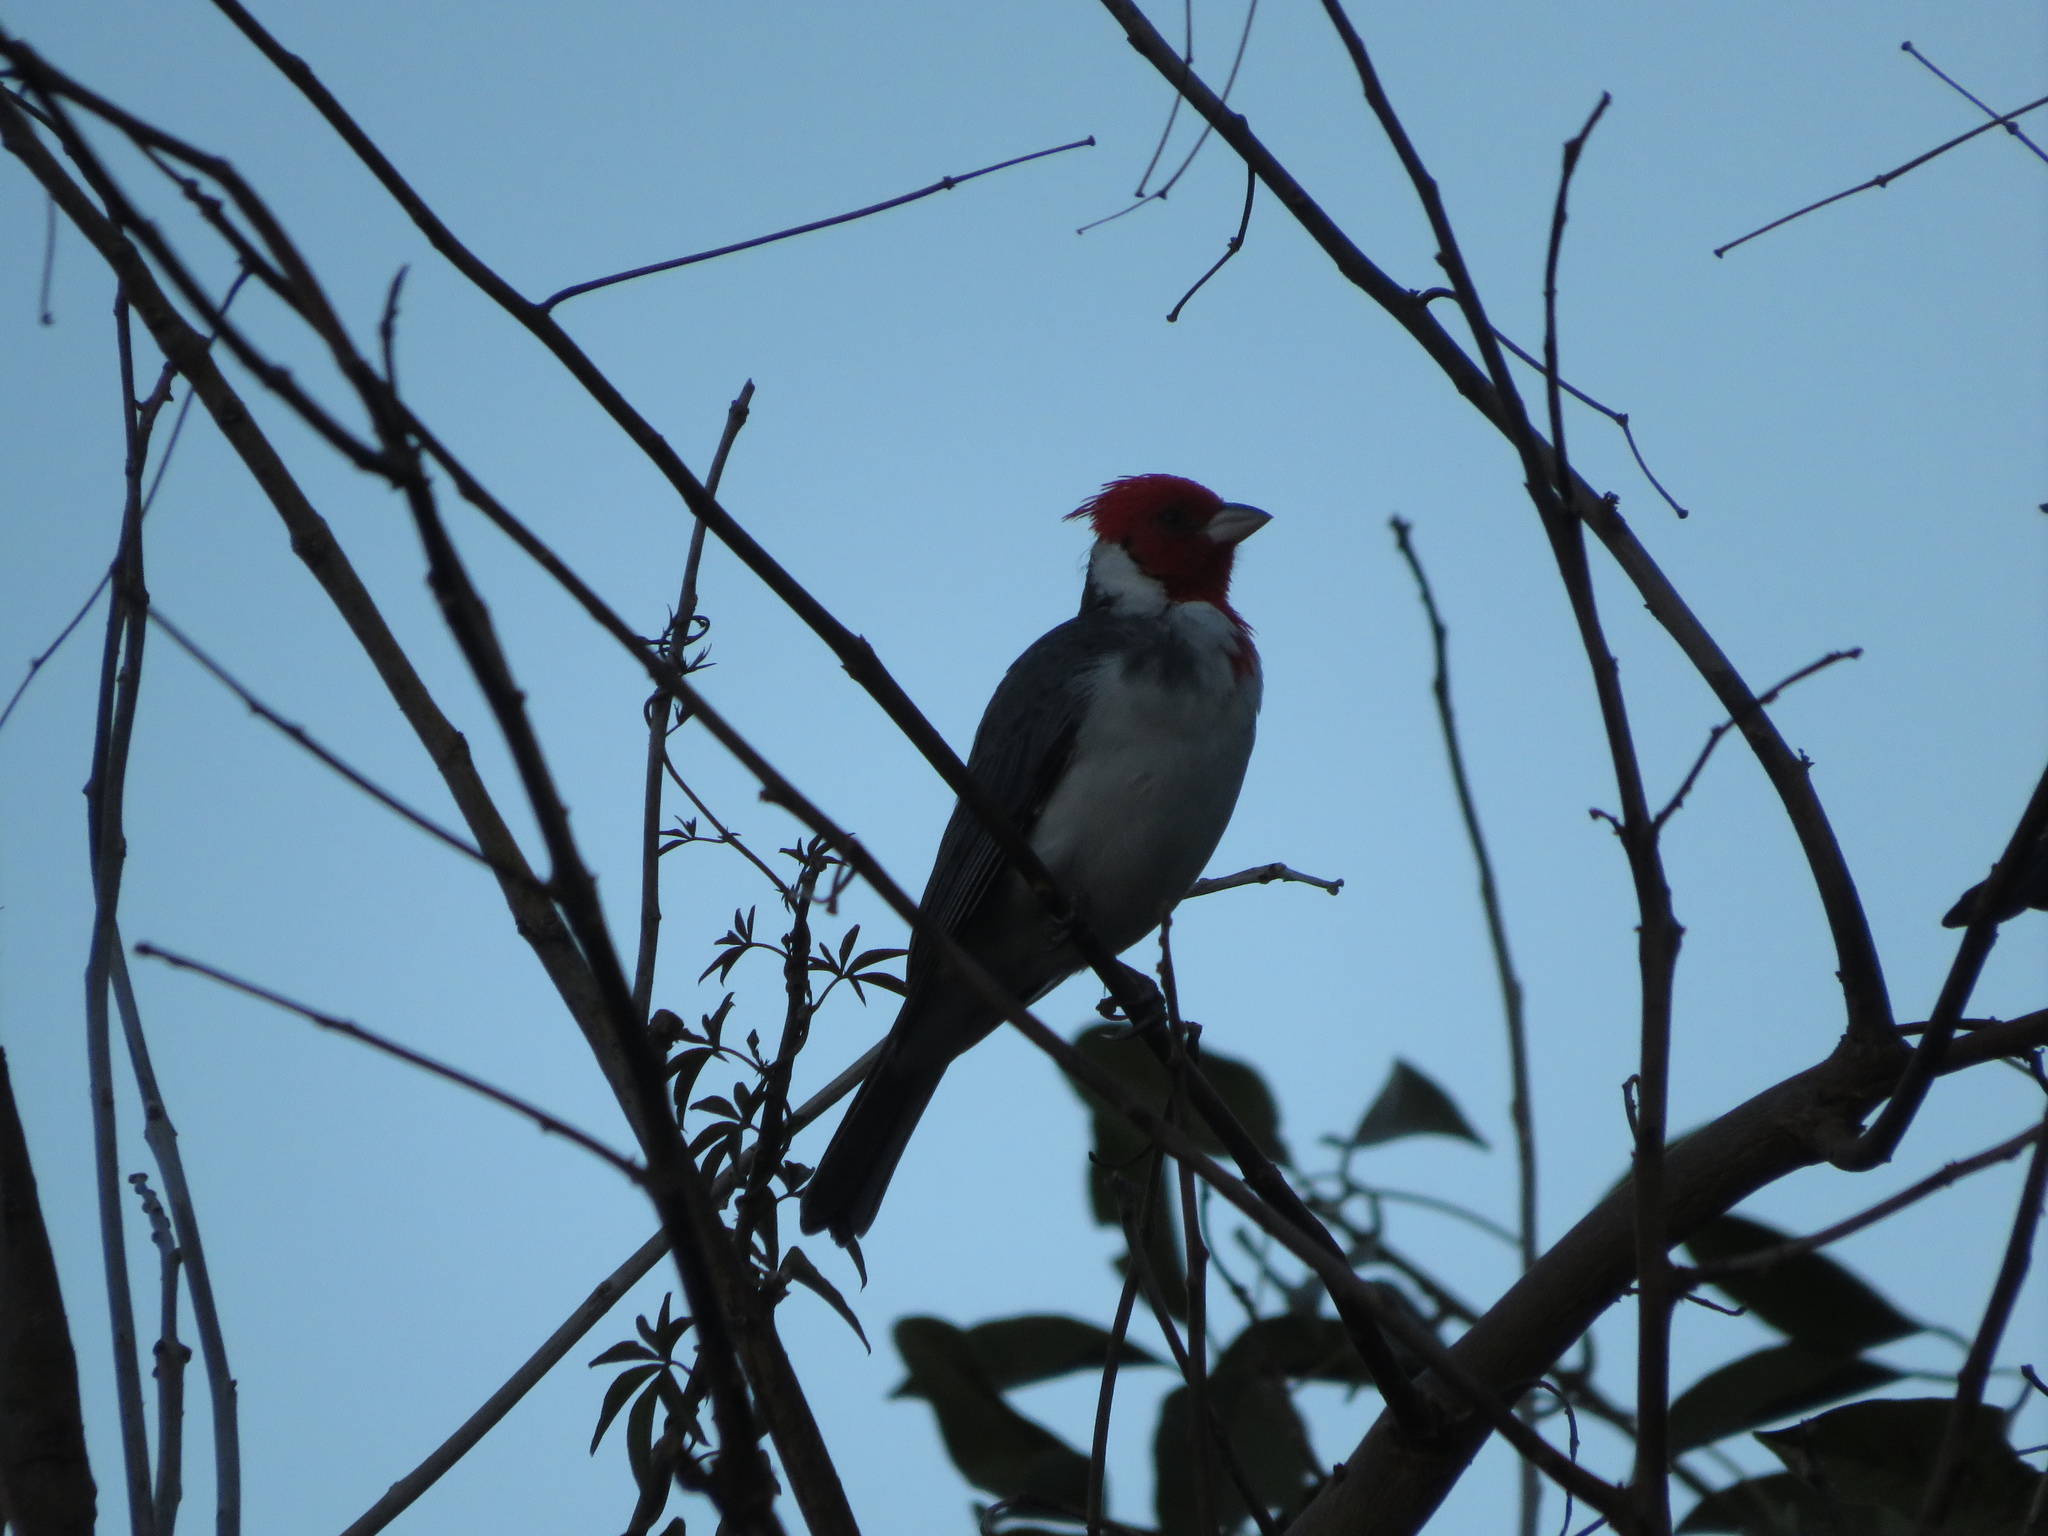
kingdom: Animalia
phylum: Chordata
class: Aves
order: Passeriformes
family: Thraupidae
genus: Paroaria
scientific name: Paroaria coronata
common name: Red-crested cardinal
